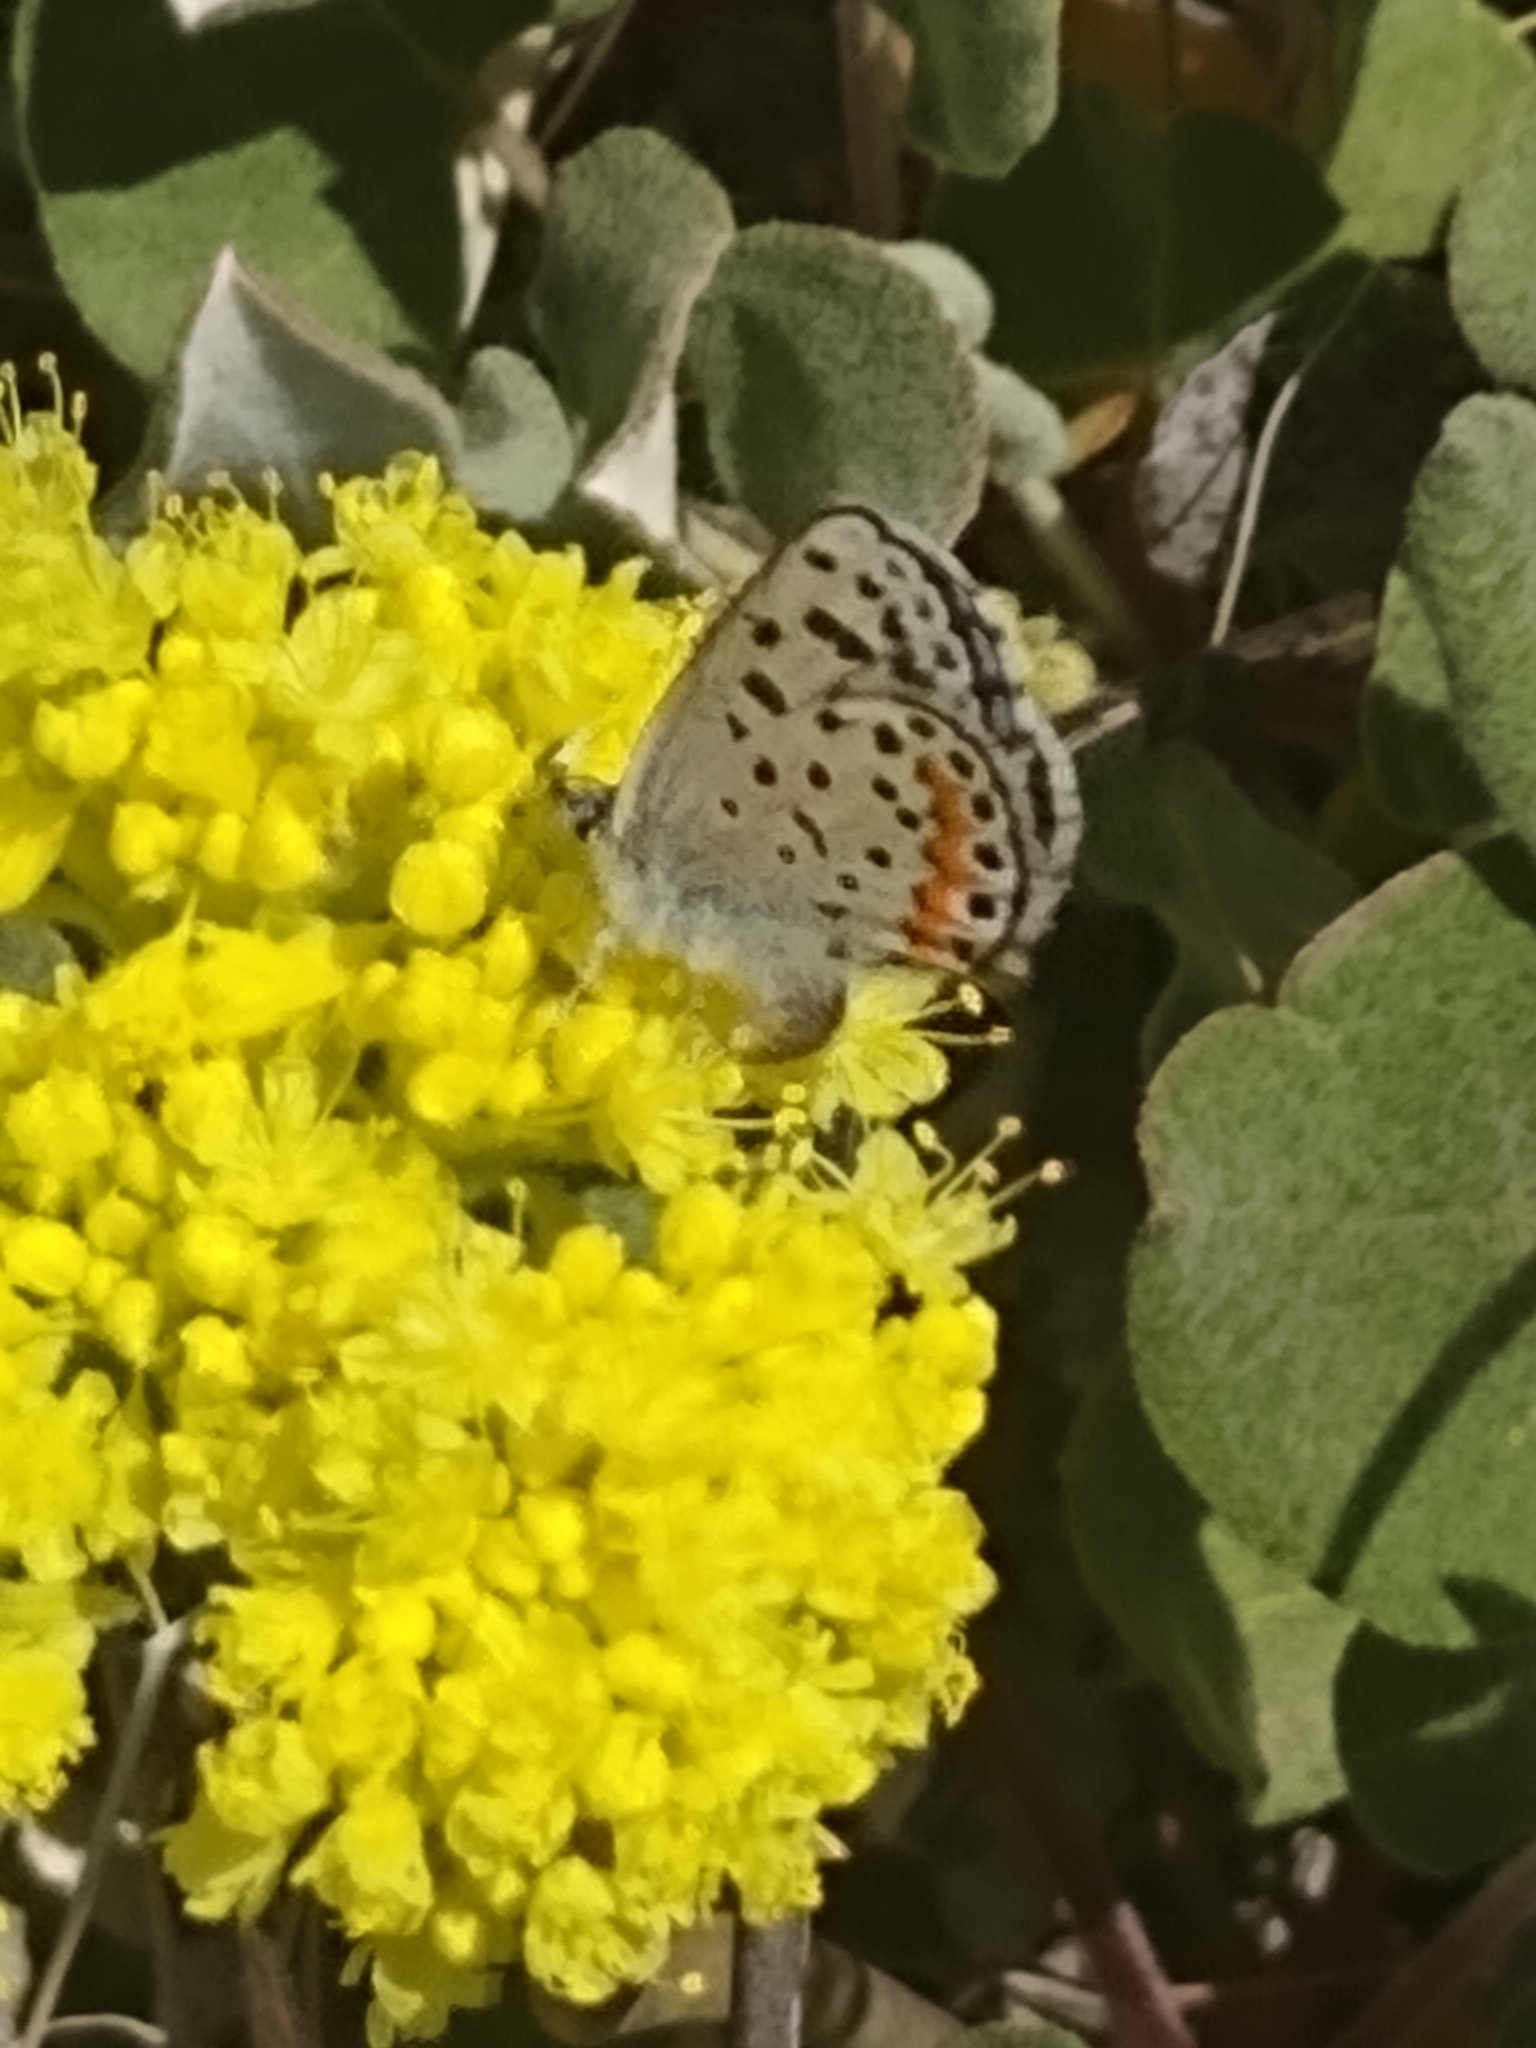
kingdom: Animalia
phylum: Arthropoda
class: Insecta
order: Lepidoptera
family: Lycaenidae
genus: Icaricia
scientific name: Icaricia acmon
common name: Acmon blue
